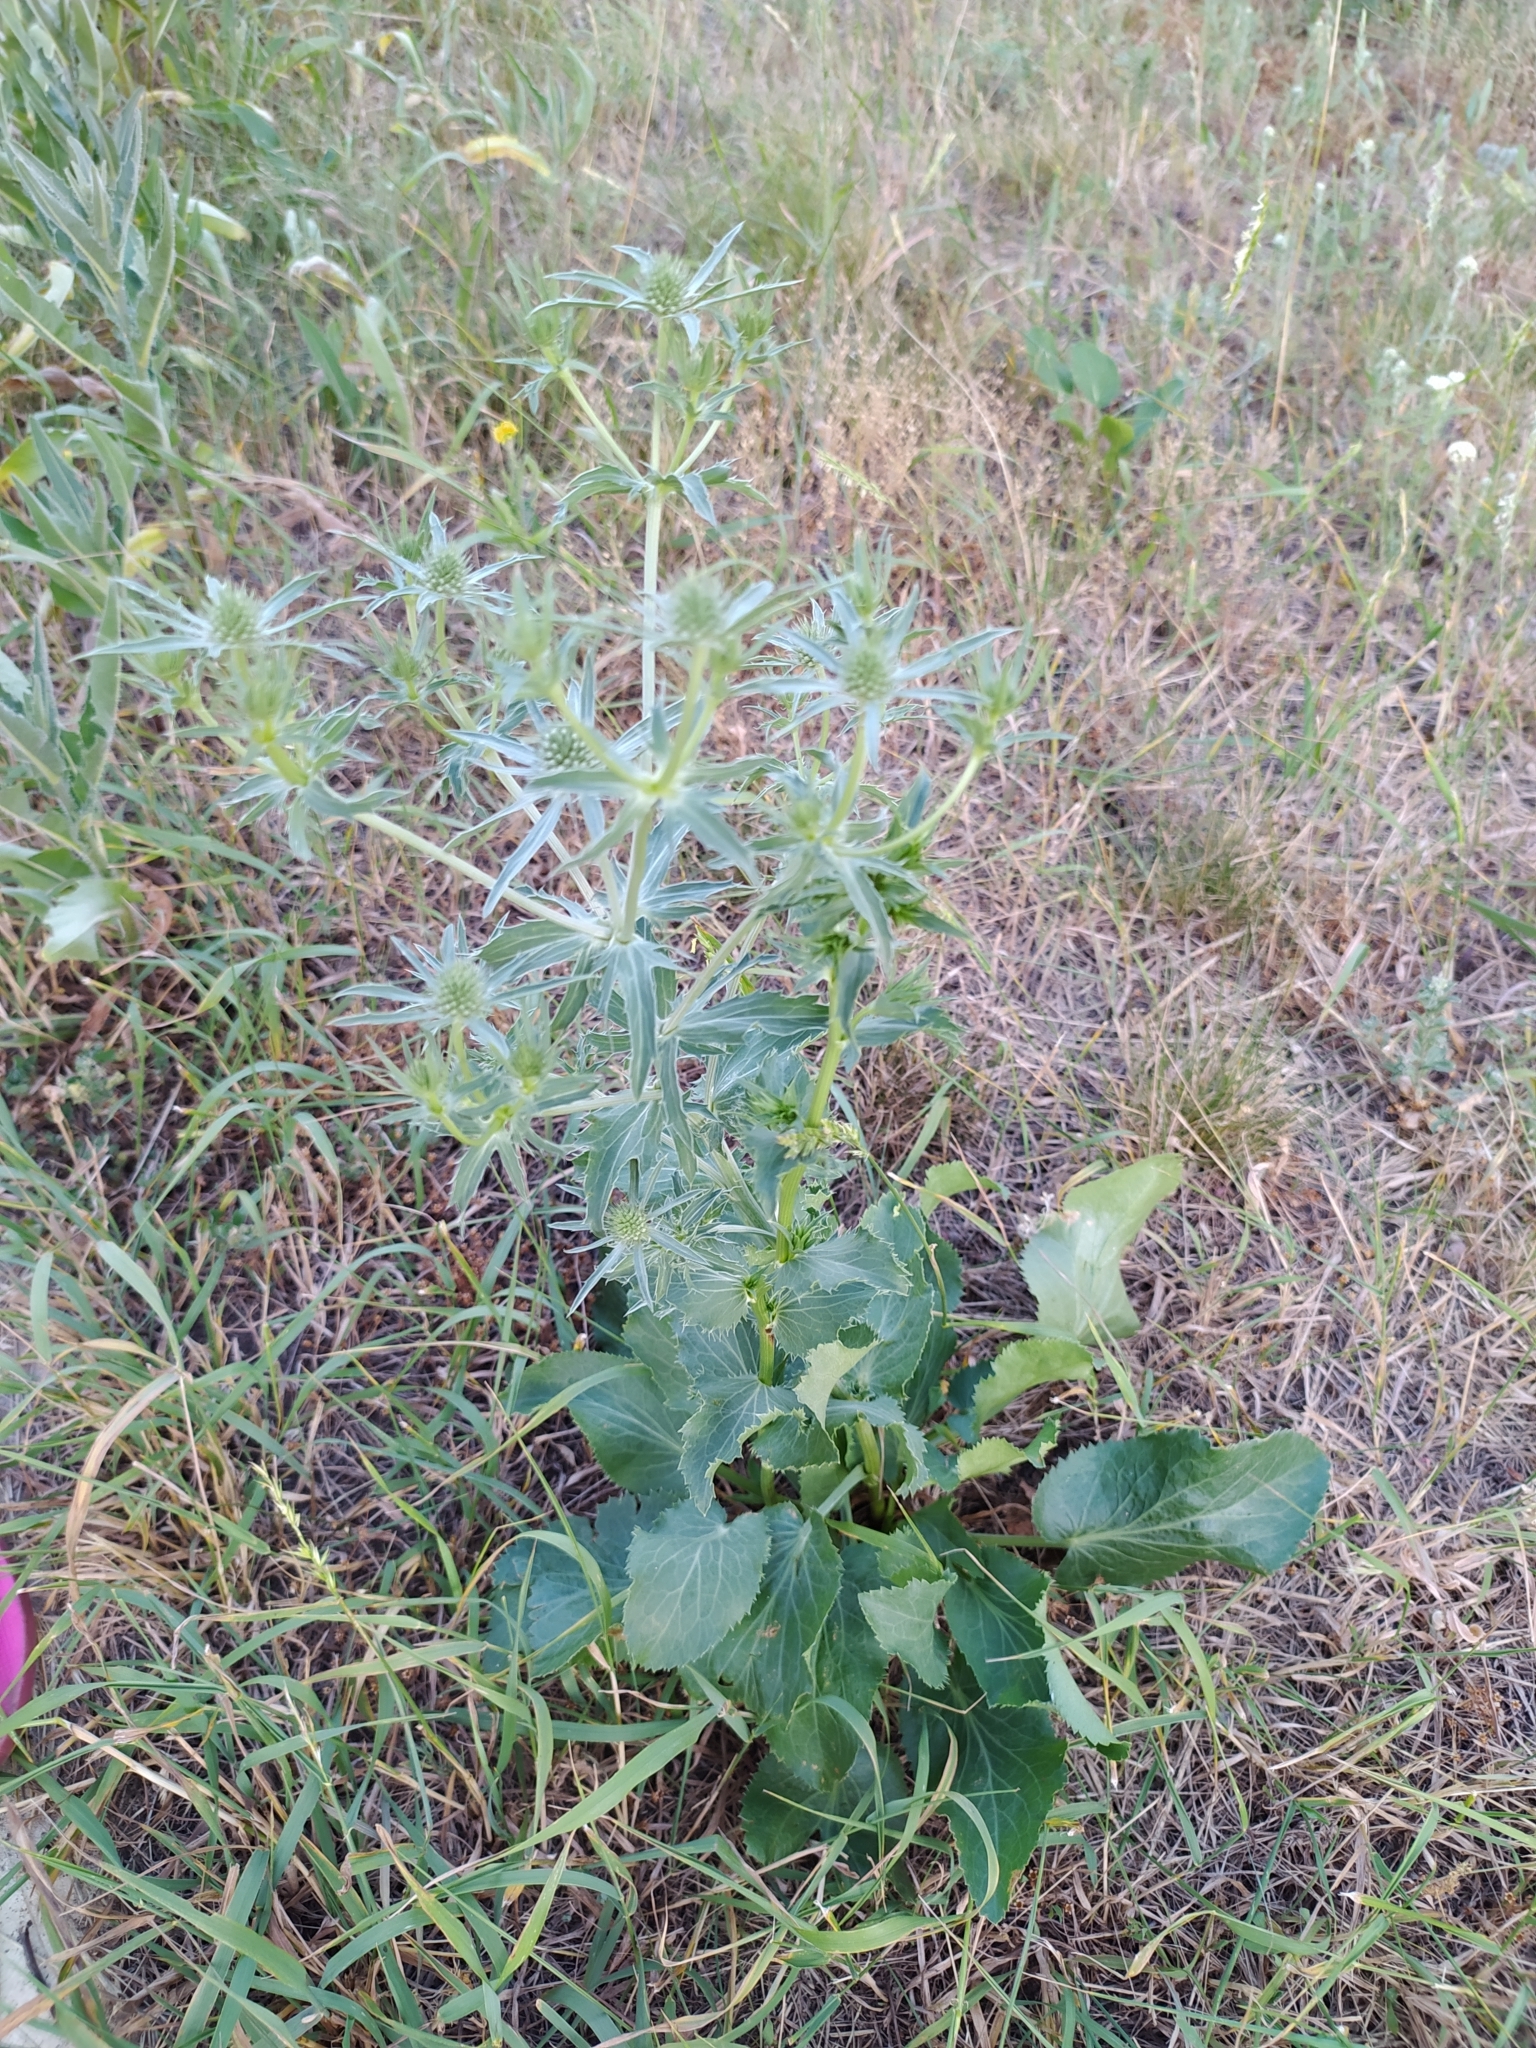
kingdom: Plantae
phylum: Tracheophyta
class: Magnoliopsida
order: Apiales
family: Apiaceae
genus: Eryngium
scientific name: Eryngium planum
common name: Blue eryngo
